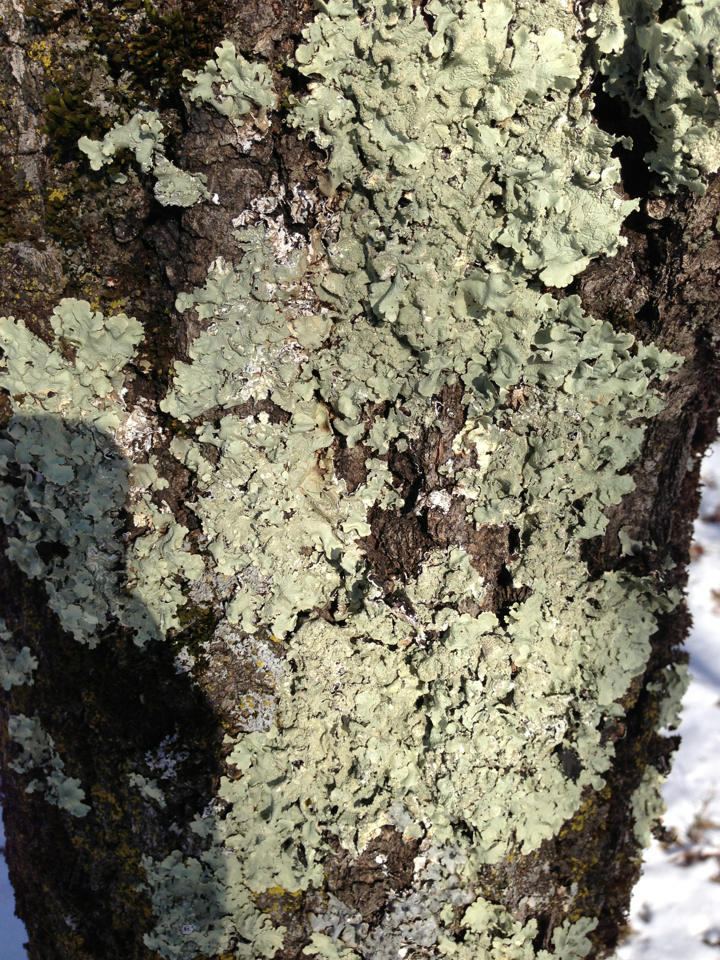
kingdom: Fungi
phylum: Ascomycota
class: Lecanoromycetes
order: Lecanorales
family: Parmeliaceae
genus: Flavoparmelia
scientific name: Flavoparmelia caperata
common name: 40-mile per hour lichen
